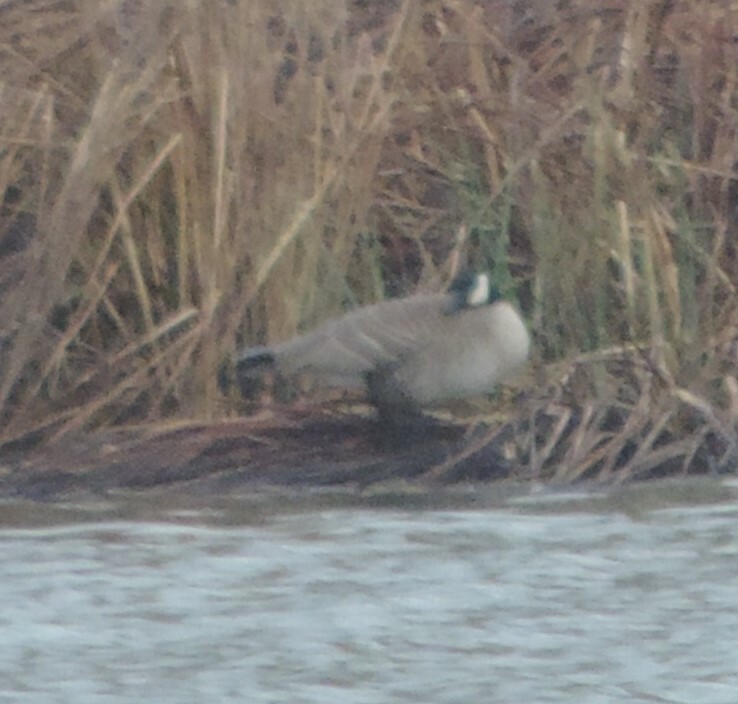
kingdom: Animalia
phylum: Chordata
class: Aves
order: Anseriformes
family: Anatidae
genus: Branta
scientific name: Branta canadensis
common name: Canada goose
